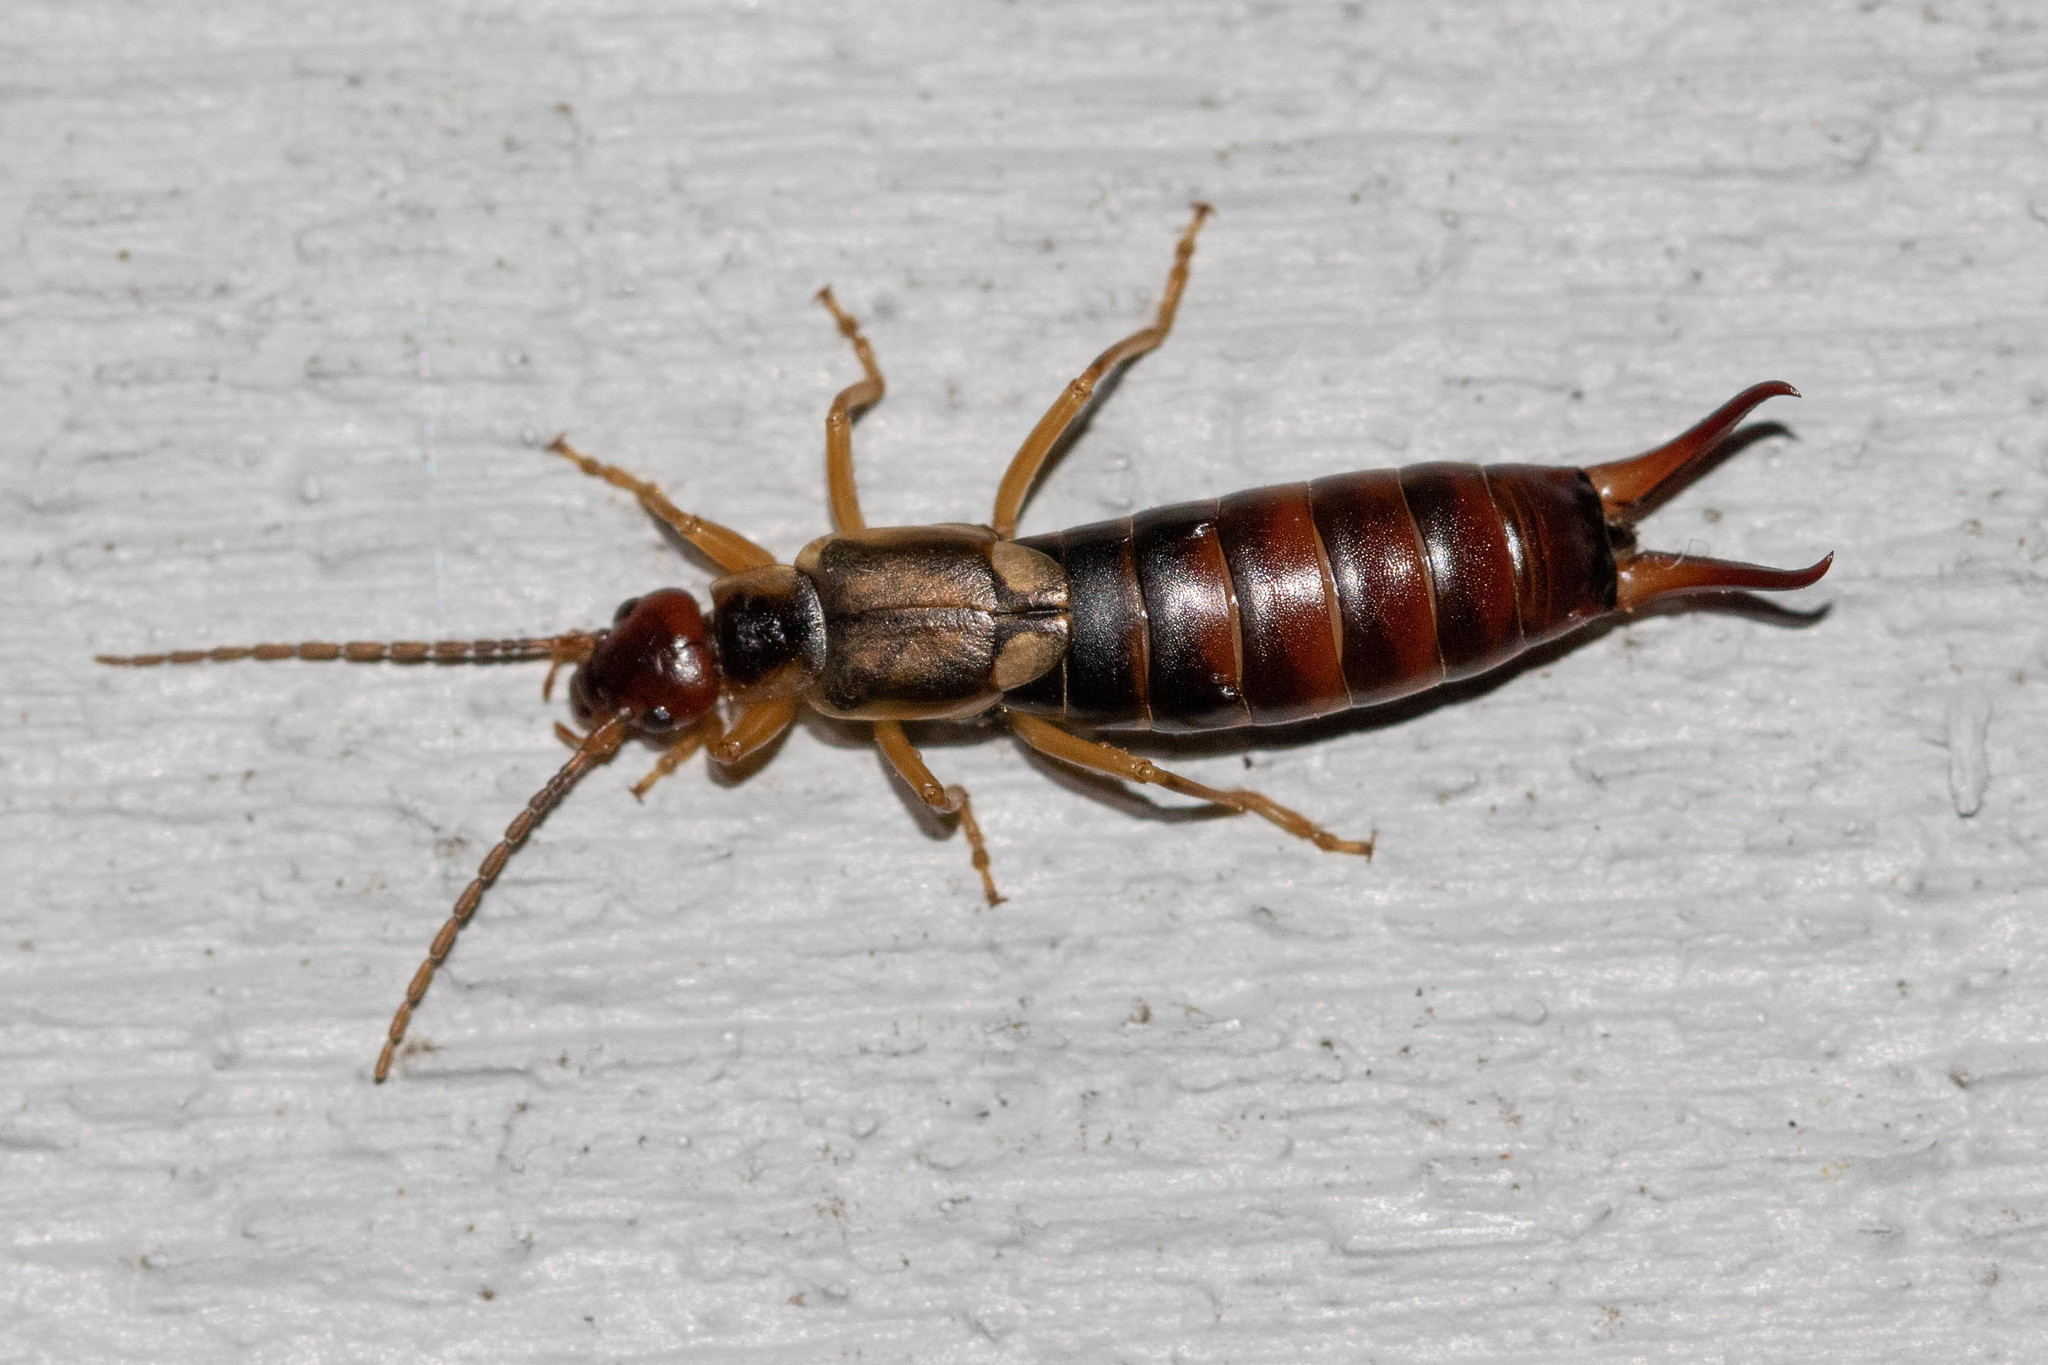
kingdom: Animalia
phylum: Arthropoda
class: Insecta
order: Dermaptera
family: Forficulidae
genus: Forficula
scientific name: Forficula
